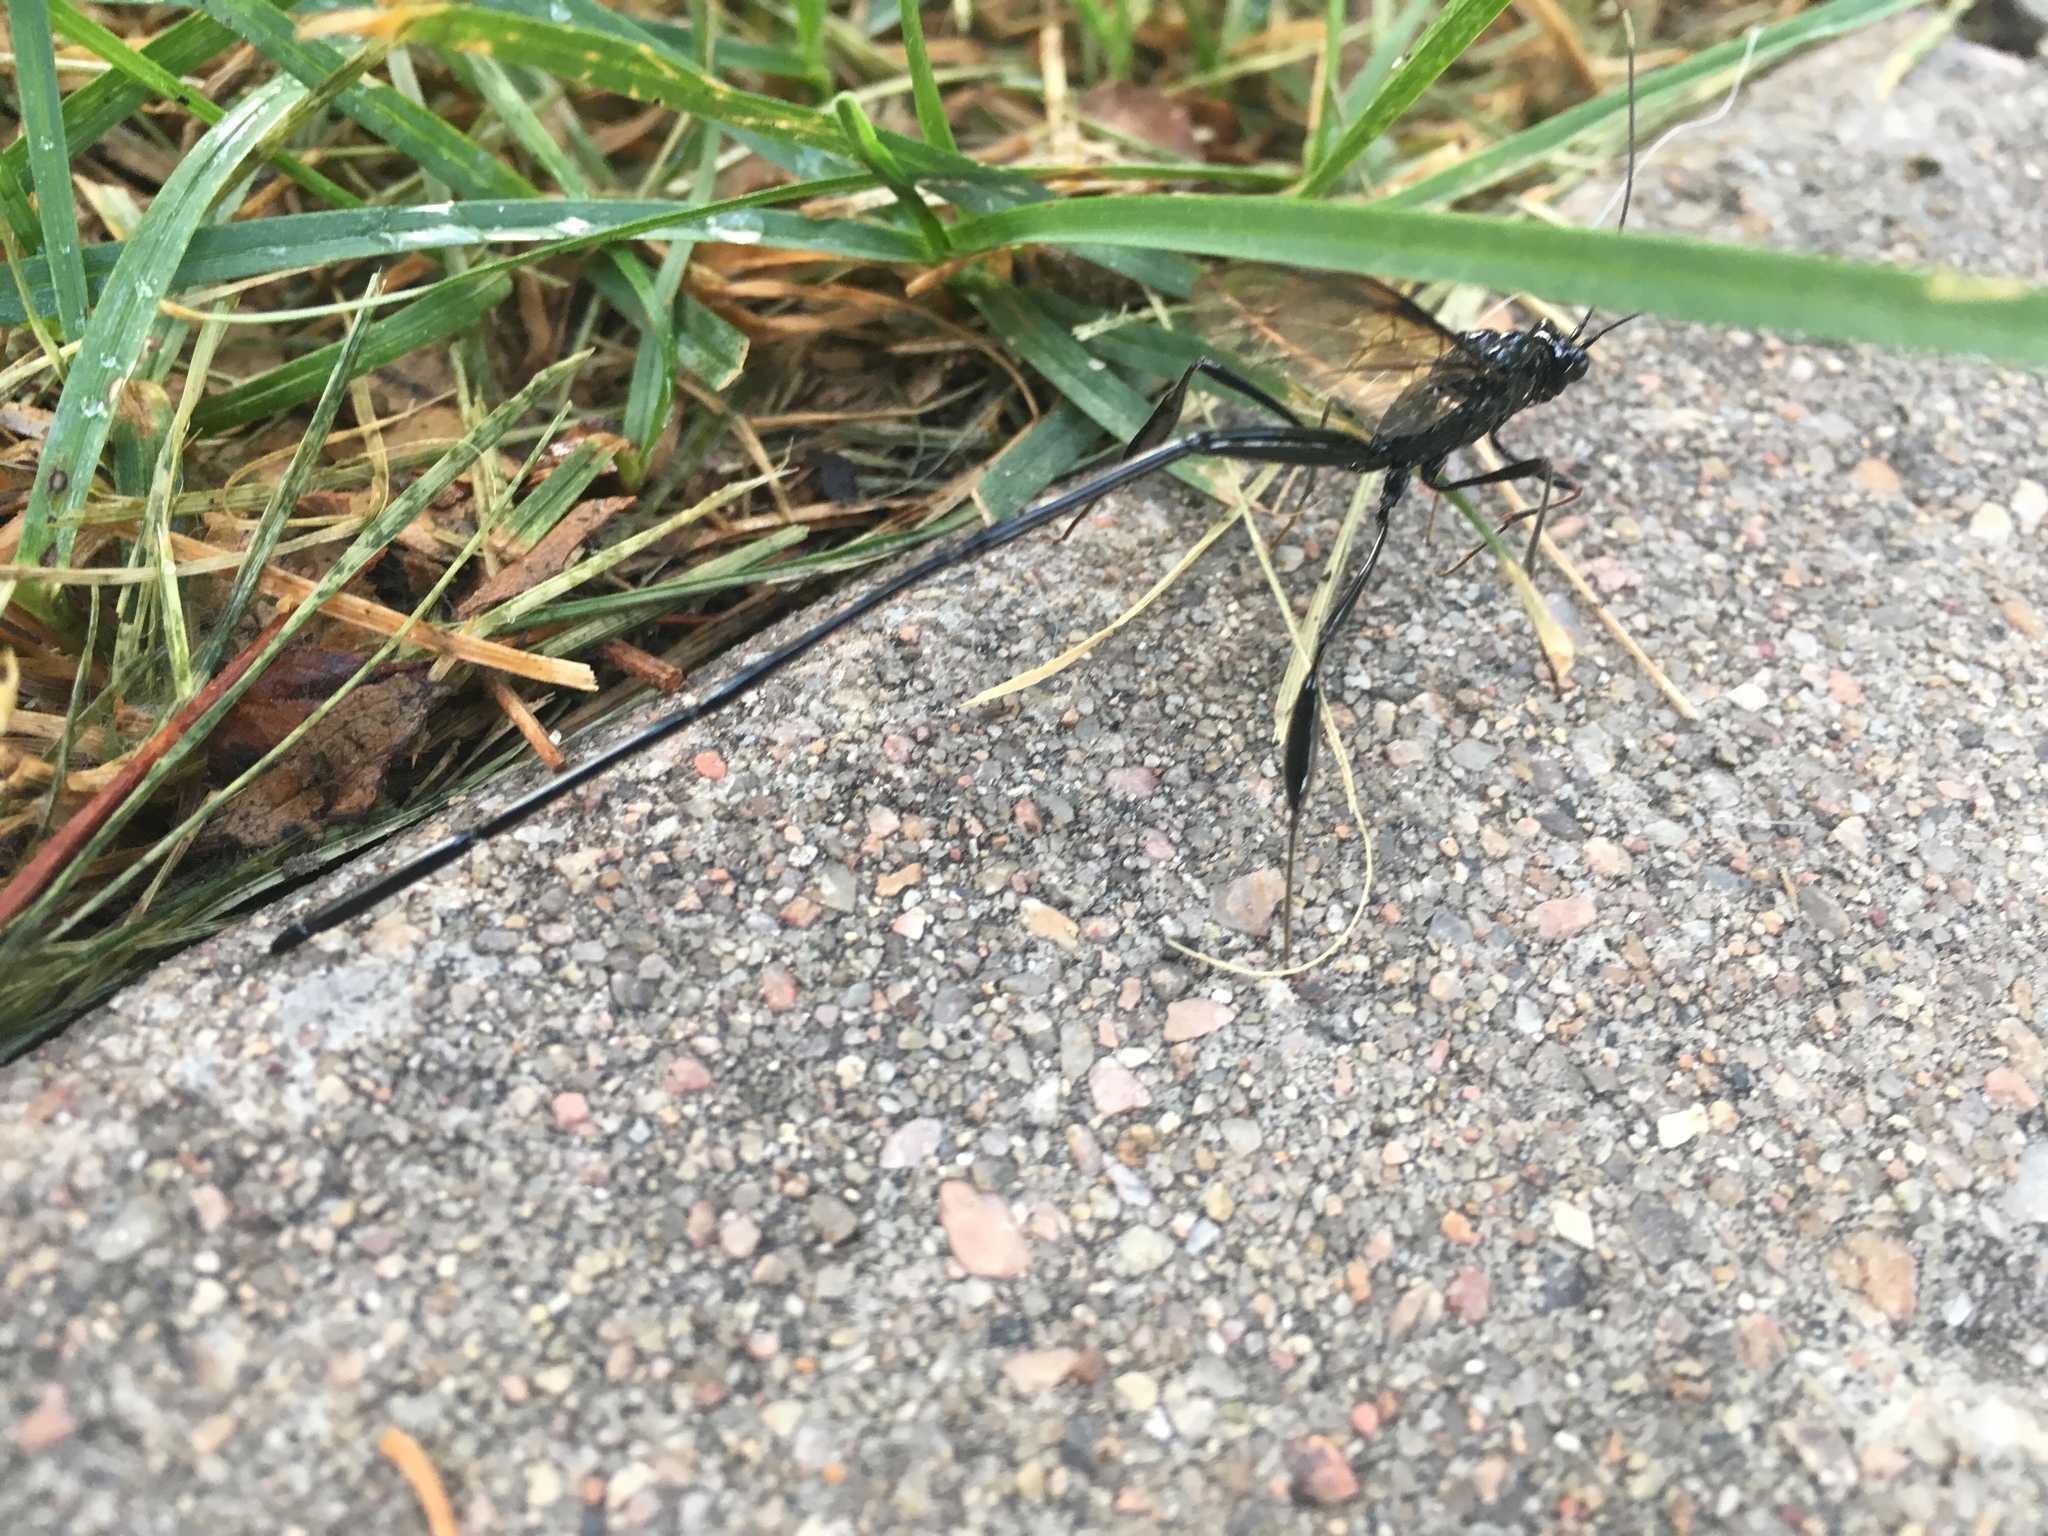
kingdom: Animalia
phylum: Arthropoda
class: Insecta
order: Hymenoptera
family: Pelecinidae
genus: Pelecinus
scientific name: Pelecinus polyturator
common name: American pelecinid wasp
